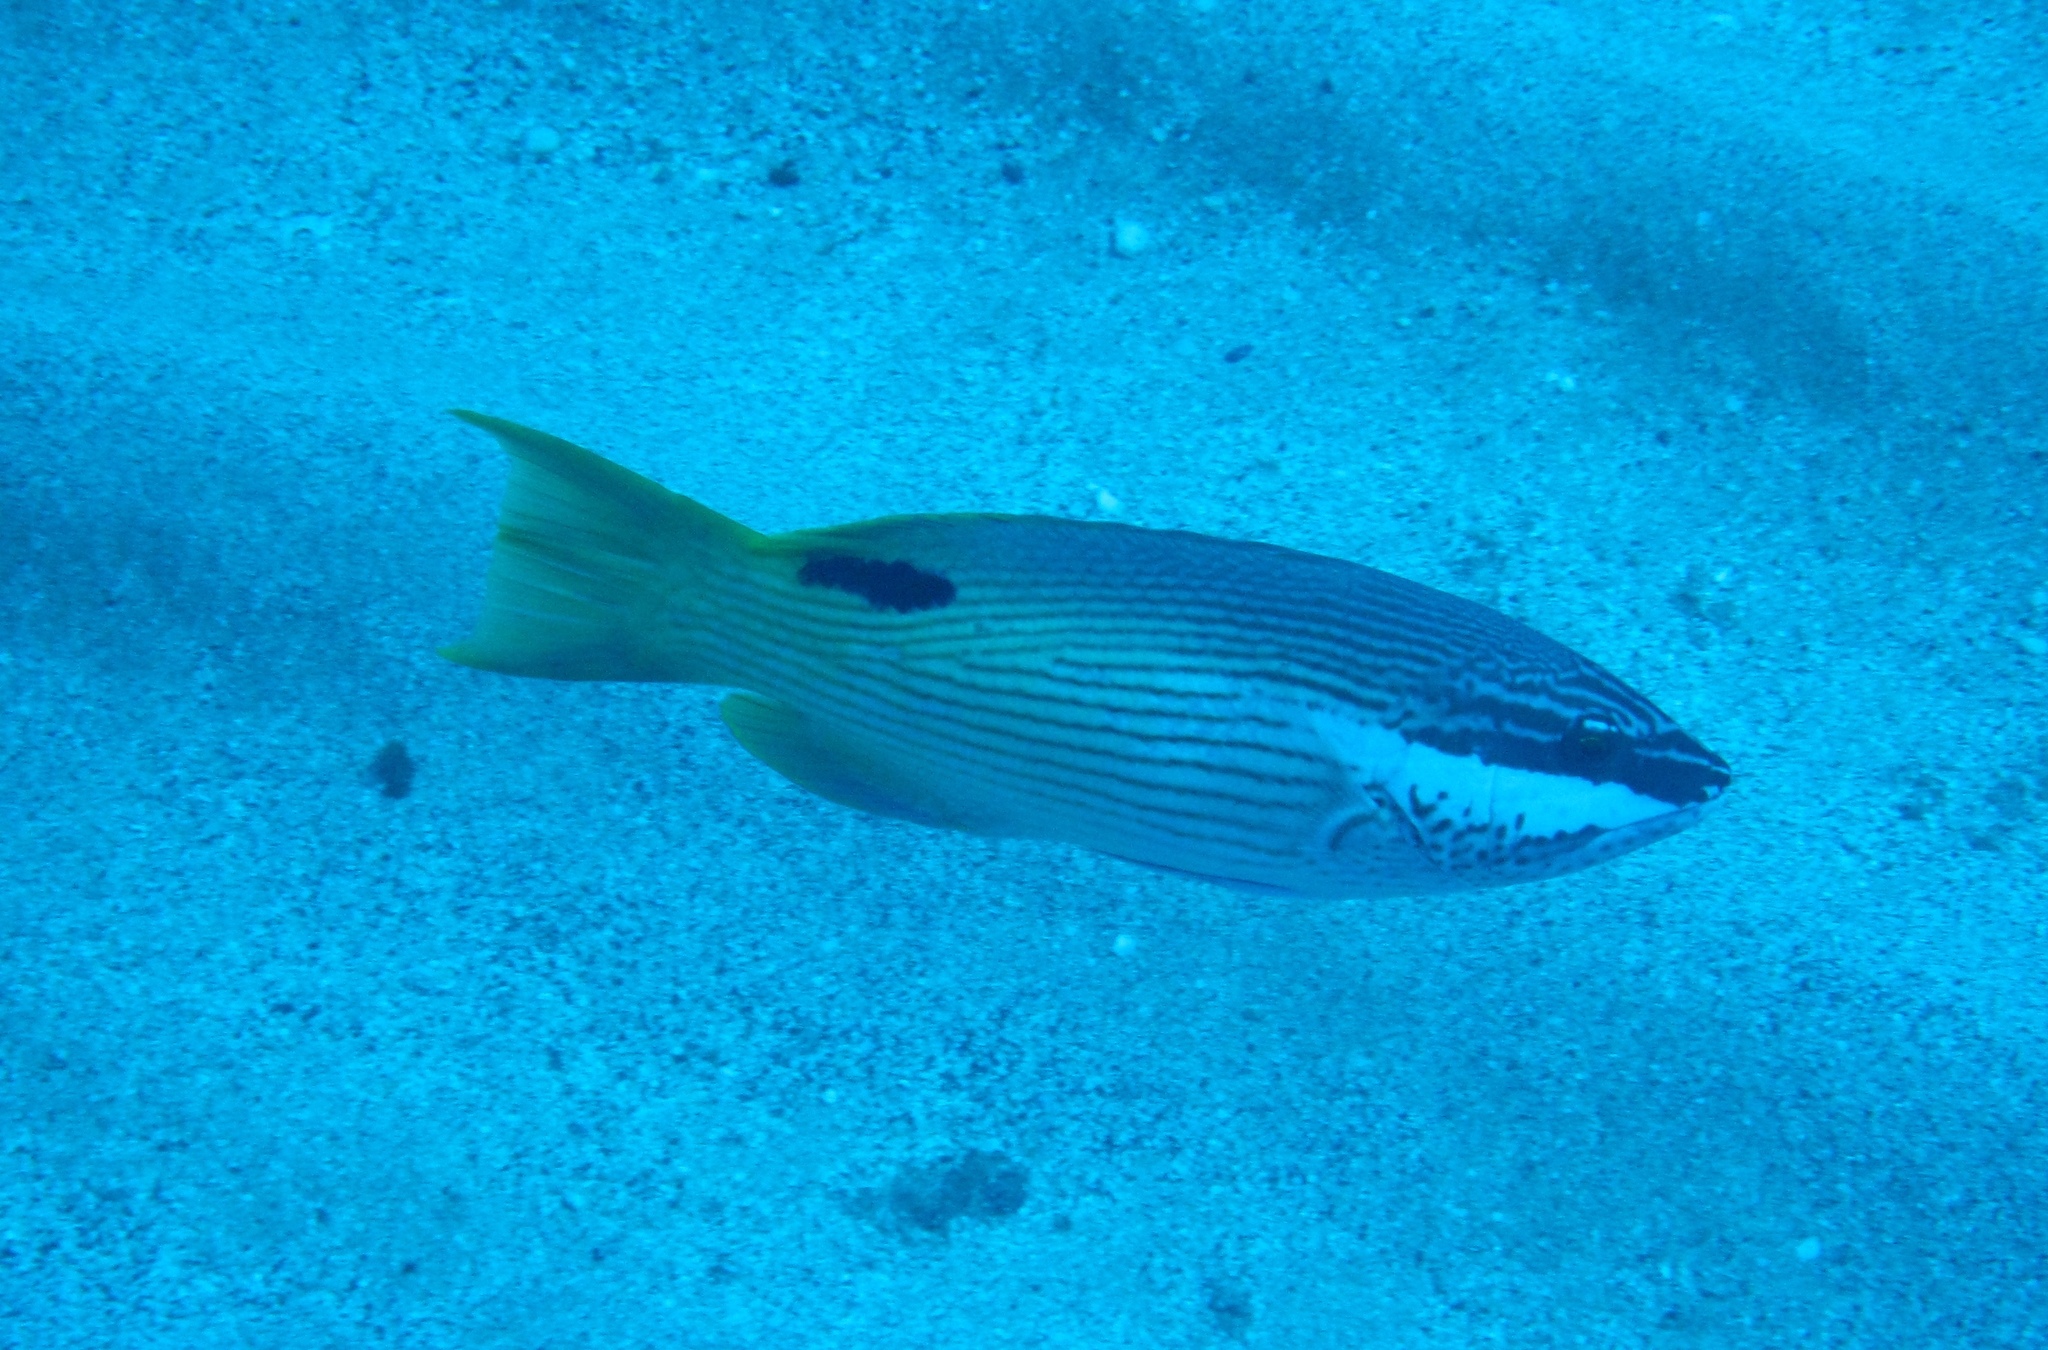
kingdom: Animalia
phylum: Chordata
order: Perciformes
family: Labridae
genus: Bodianus
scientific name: Bodianus albotaeniatus
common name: Hawaiian hogfish
